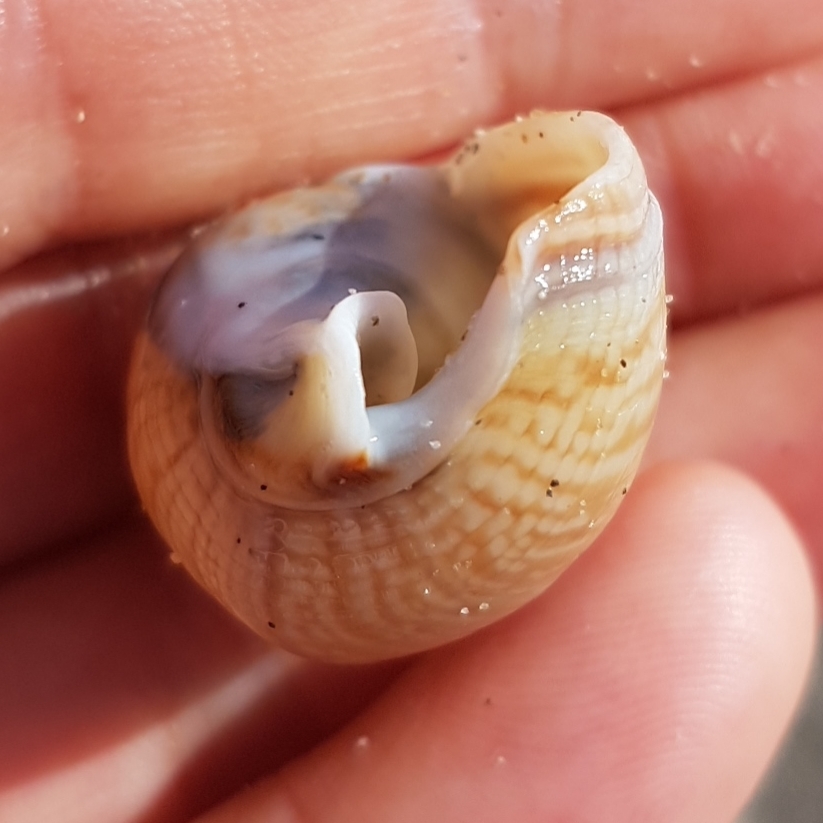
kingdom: Animalia
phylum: Mollusca
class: Gastropoda
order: Neogastropoda
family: Nassariidae
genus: Tritia
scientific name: Tritia mutabilis
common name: Mutable nassa
